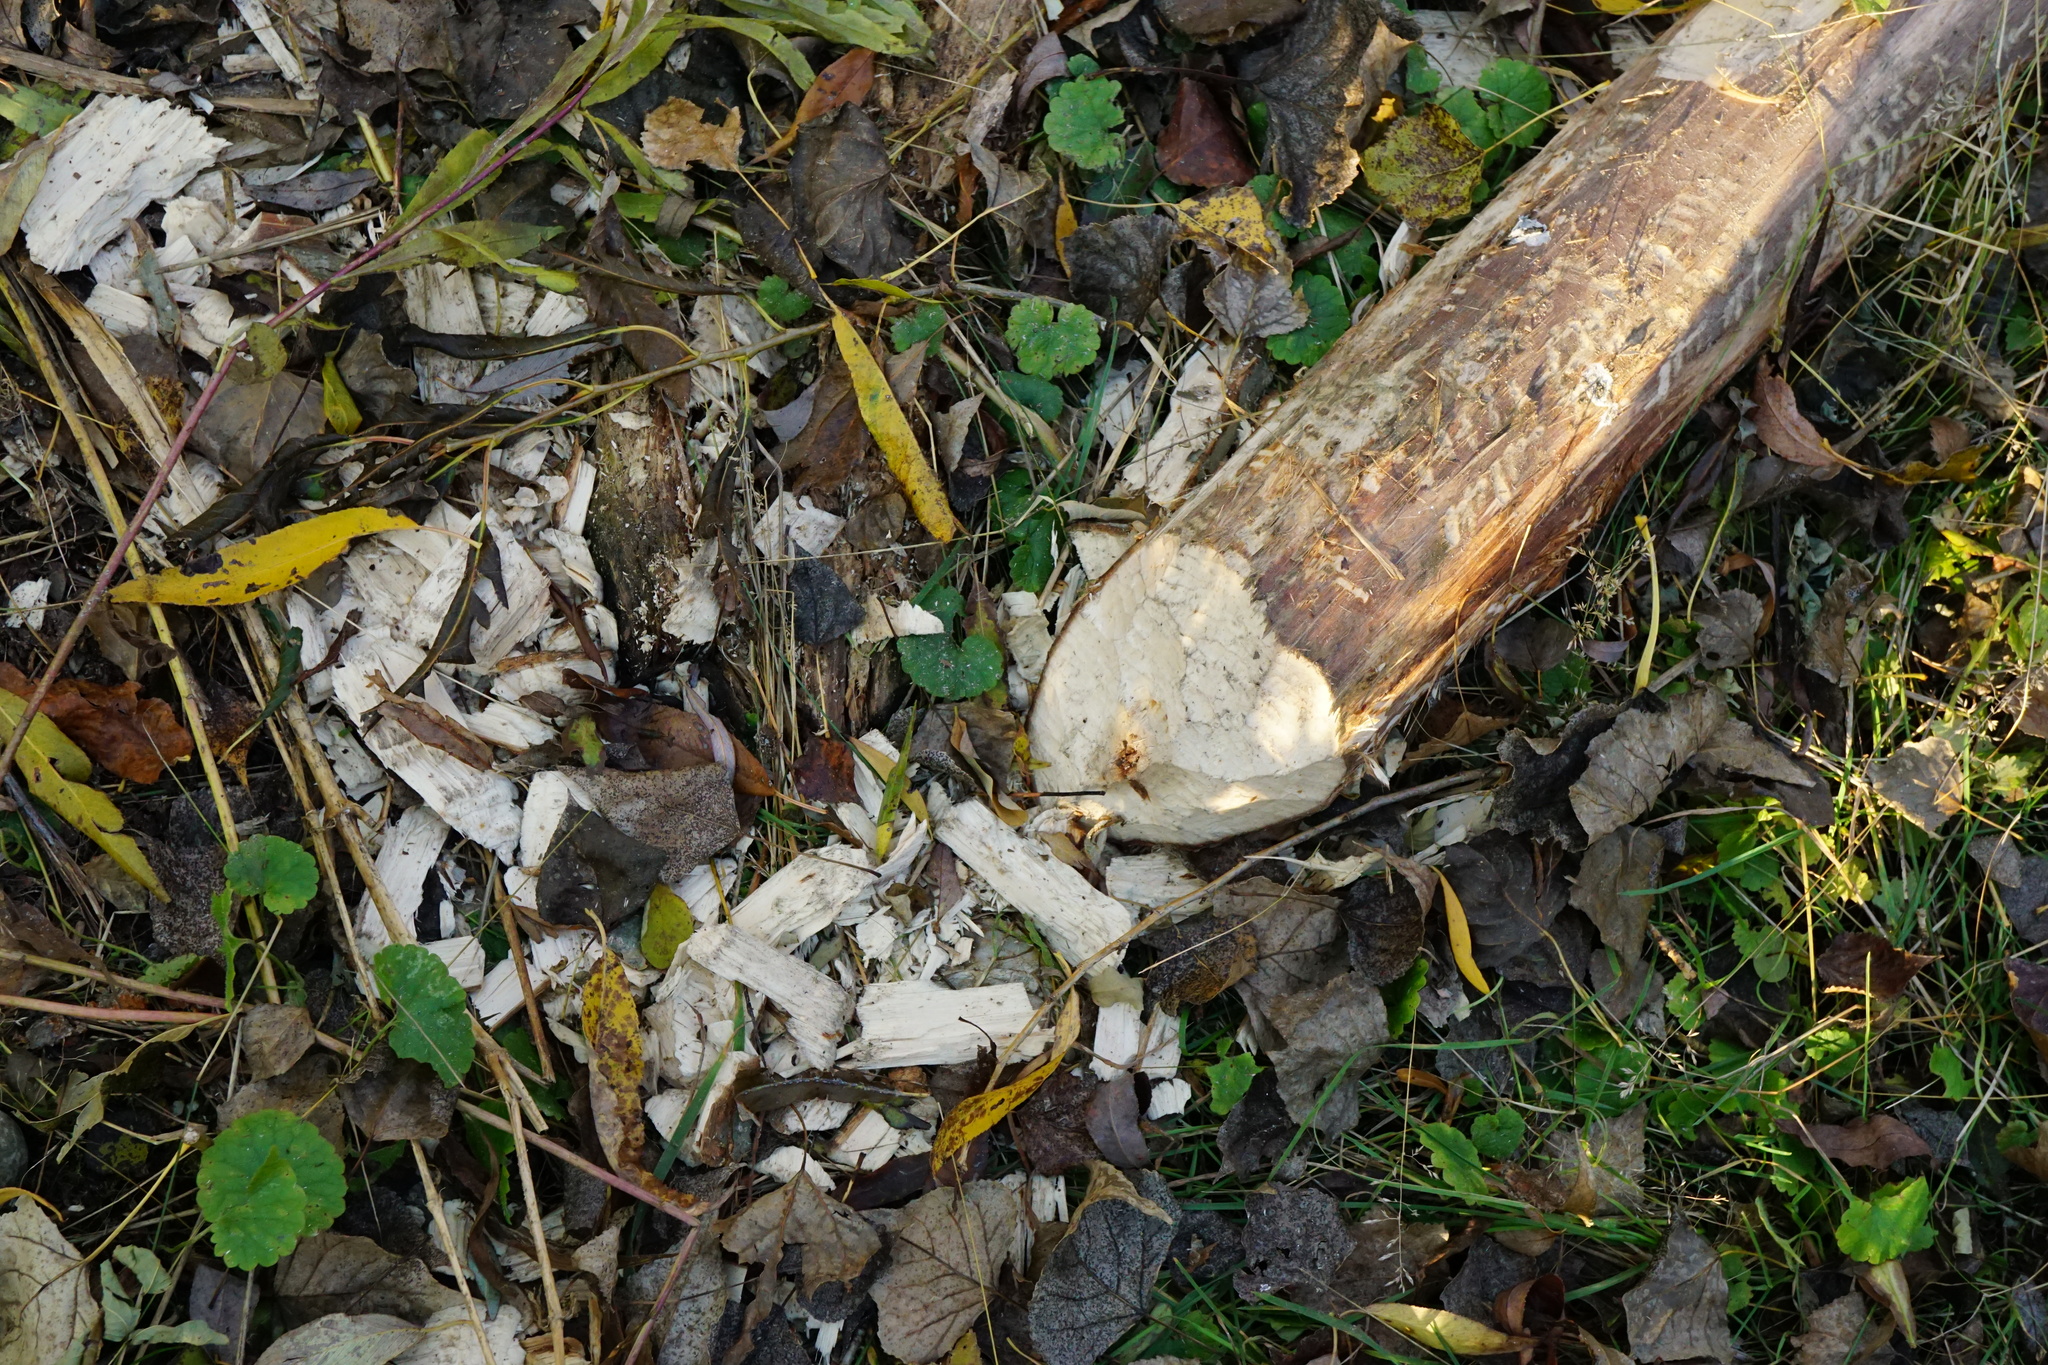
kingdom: Animalia
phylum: Chordata
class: Mammalia
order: Rodentia
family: Castoridae
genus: Castor
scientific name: Castor fiber
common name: Eurasian beaver
